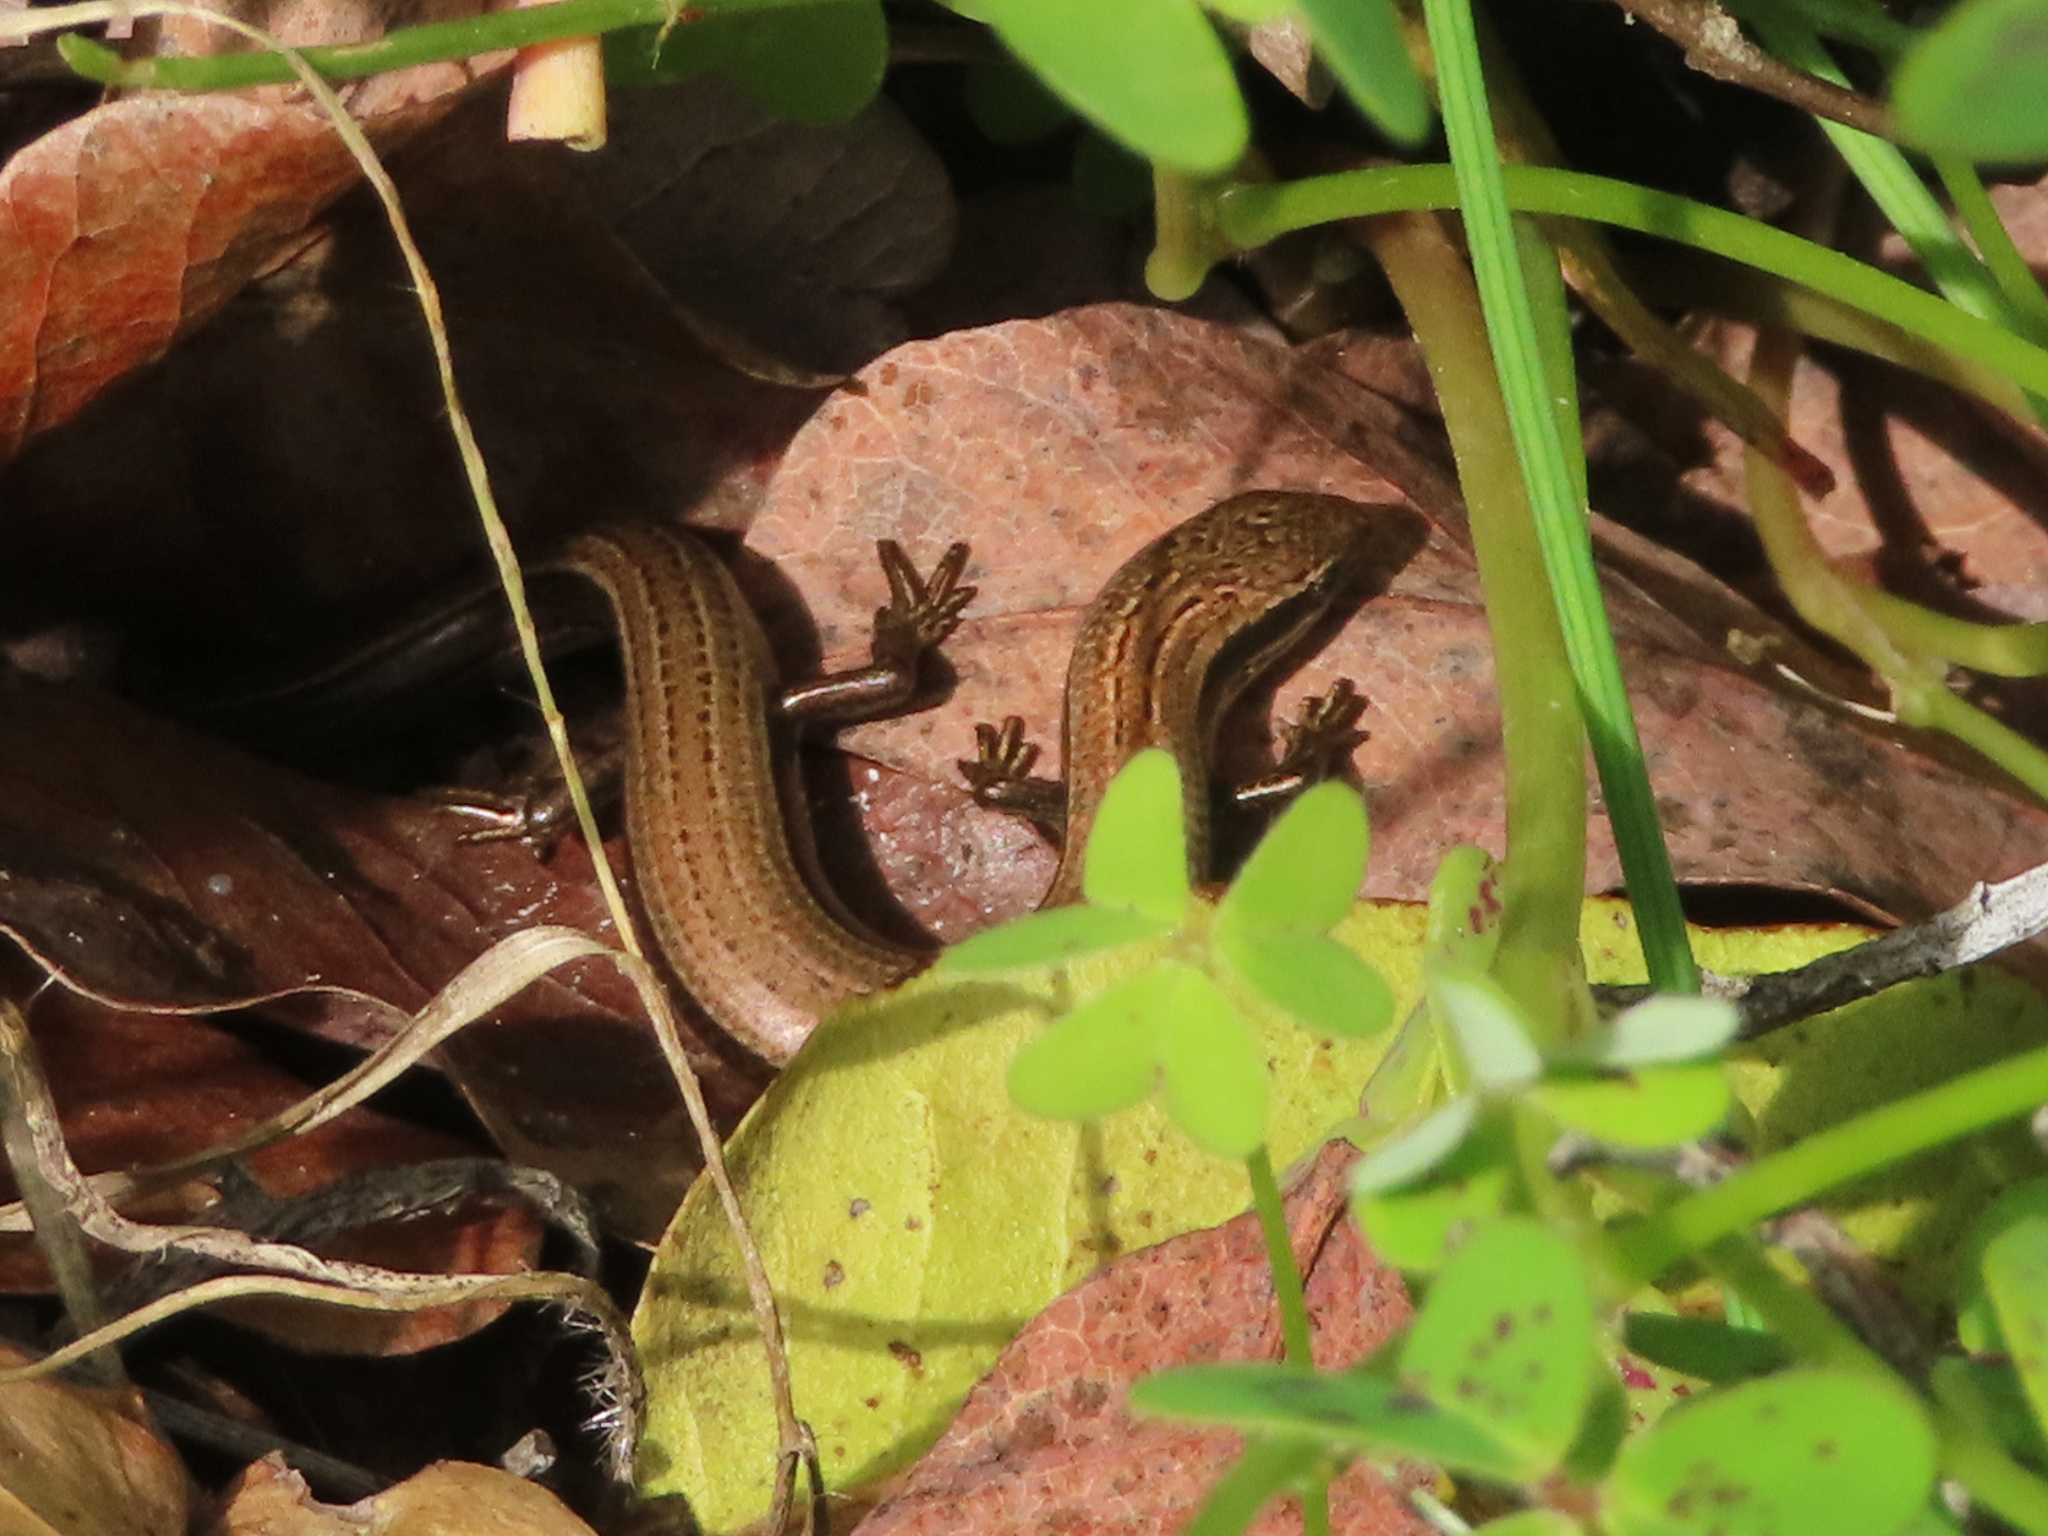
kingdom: Animalia
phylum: Chordata
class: Squamata
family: Scincidae
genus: Ablepharus
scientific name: Ablepharus kitaibelii
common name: Juniper skink
